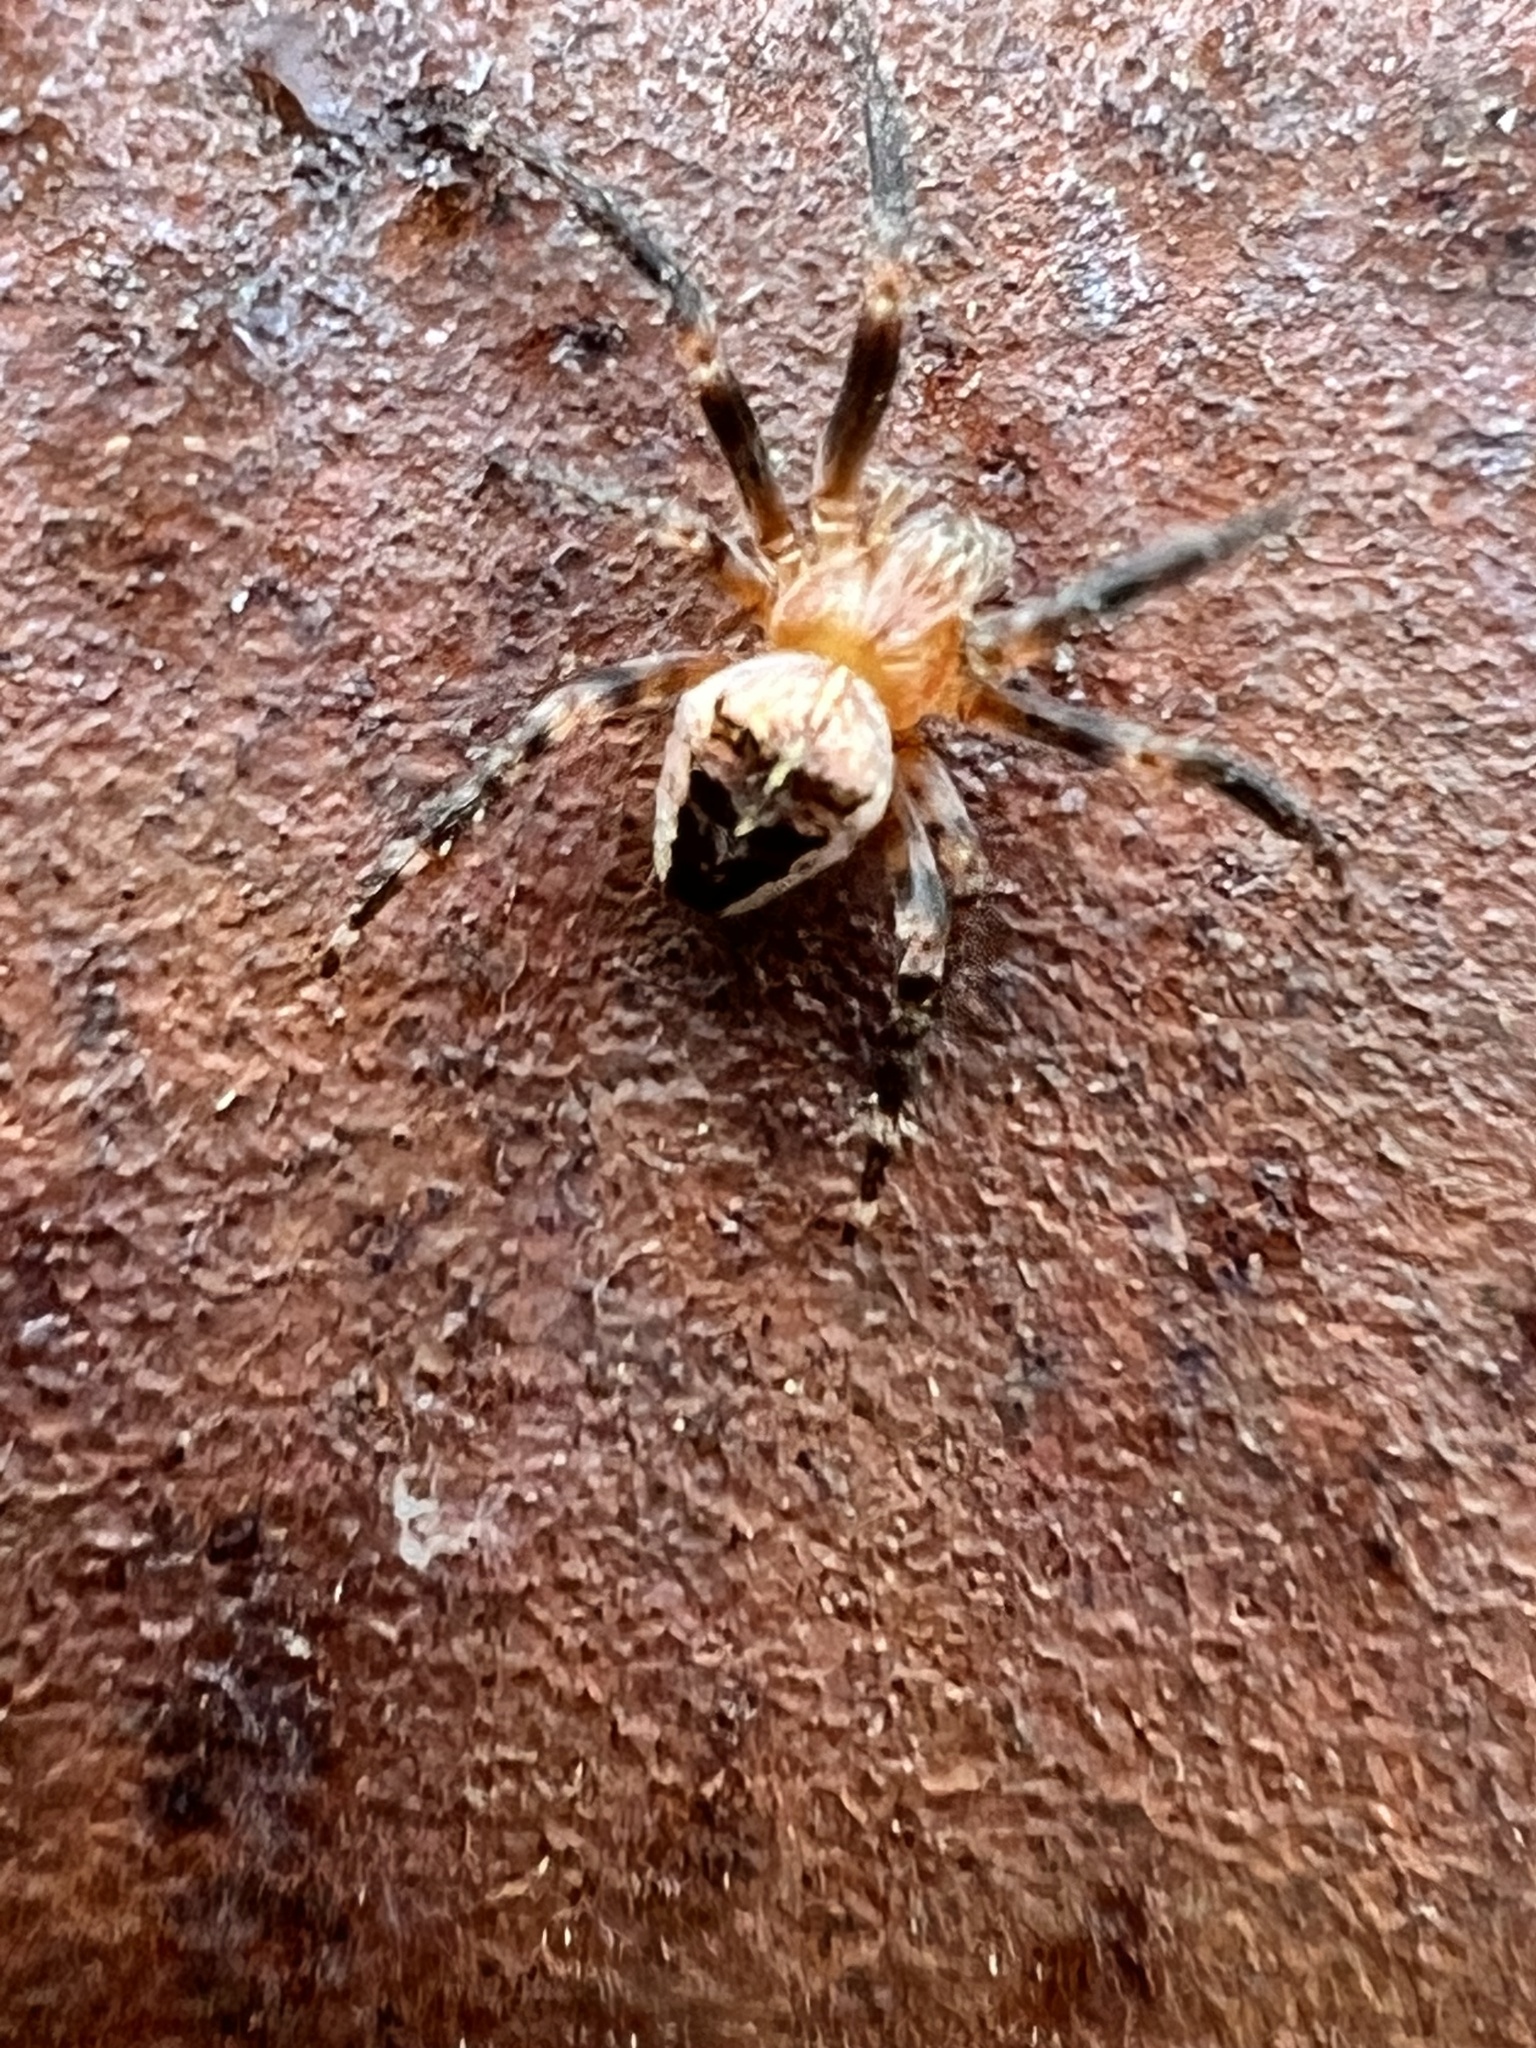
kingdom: Animalia
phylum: Arthropoda
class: Arachnida
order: Araneae
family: Araneidae
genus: Araneus
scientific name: Araneus diadematus
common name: Cross orbweaver
